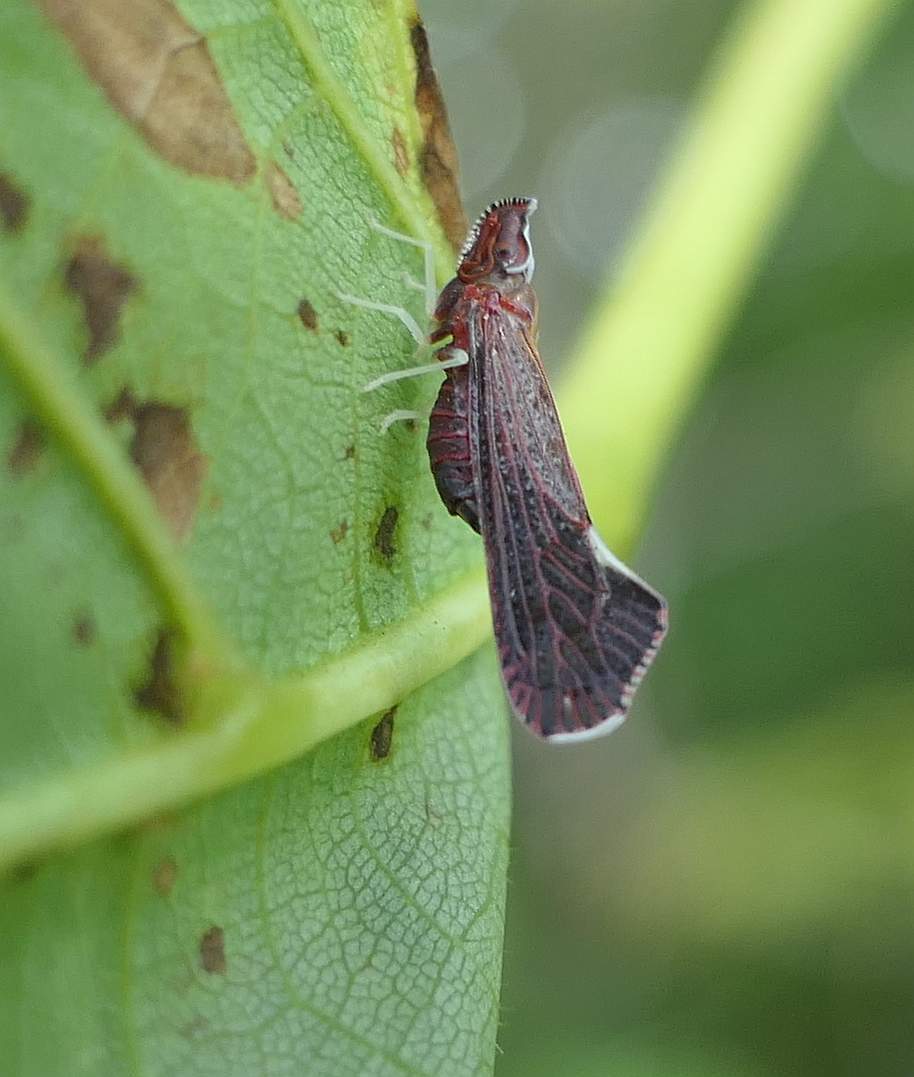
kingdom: Animalia
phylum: Arthropoda
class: Insecta
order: Hemiptera
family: Derbidae
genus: Apache
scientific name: Apache degeeri
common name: Red-fanned planthopper
